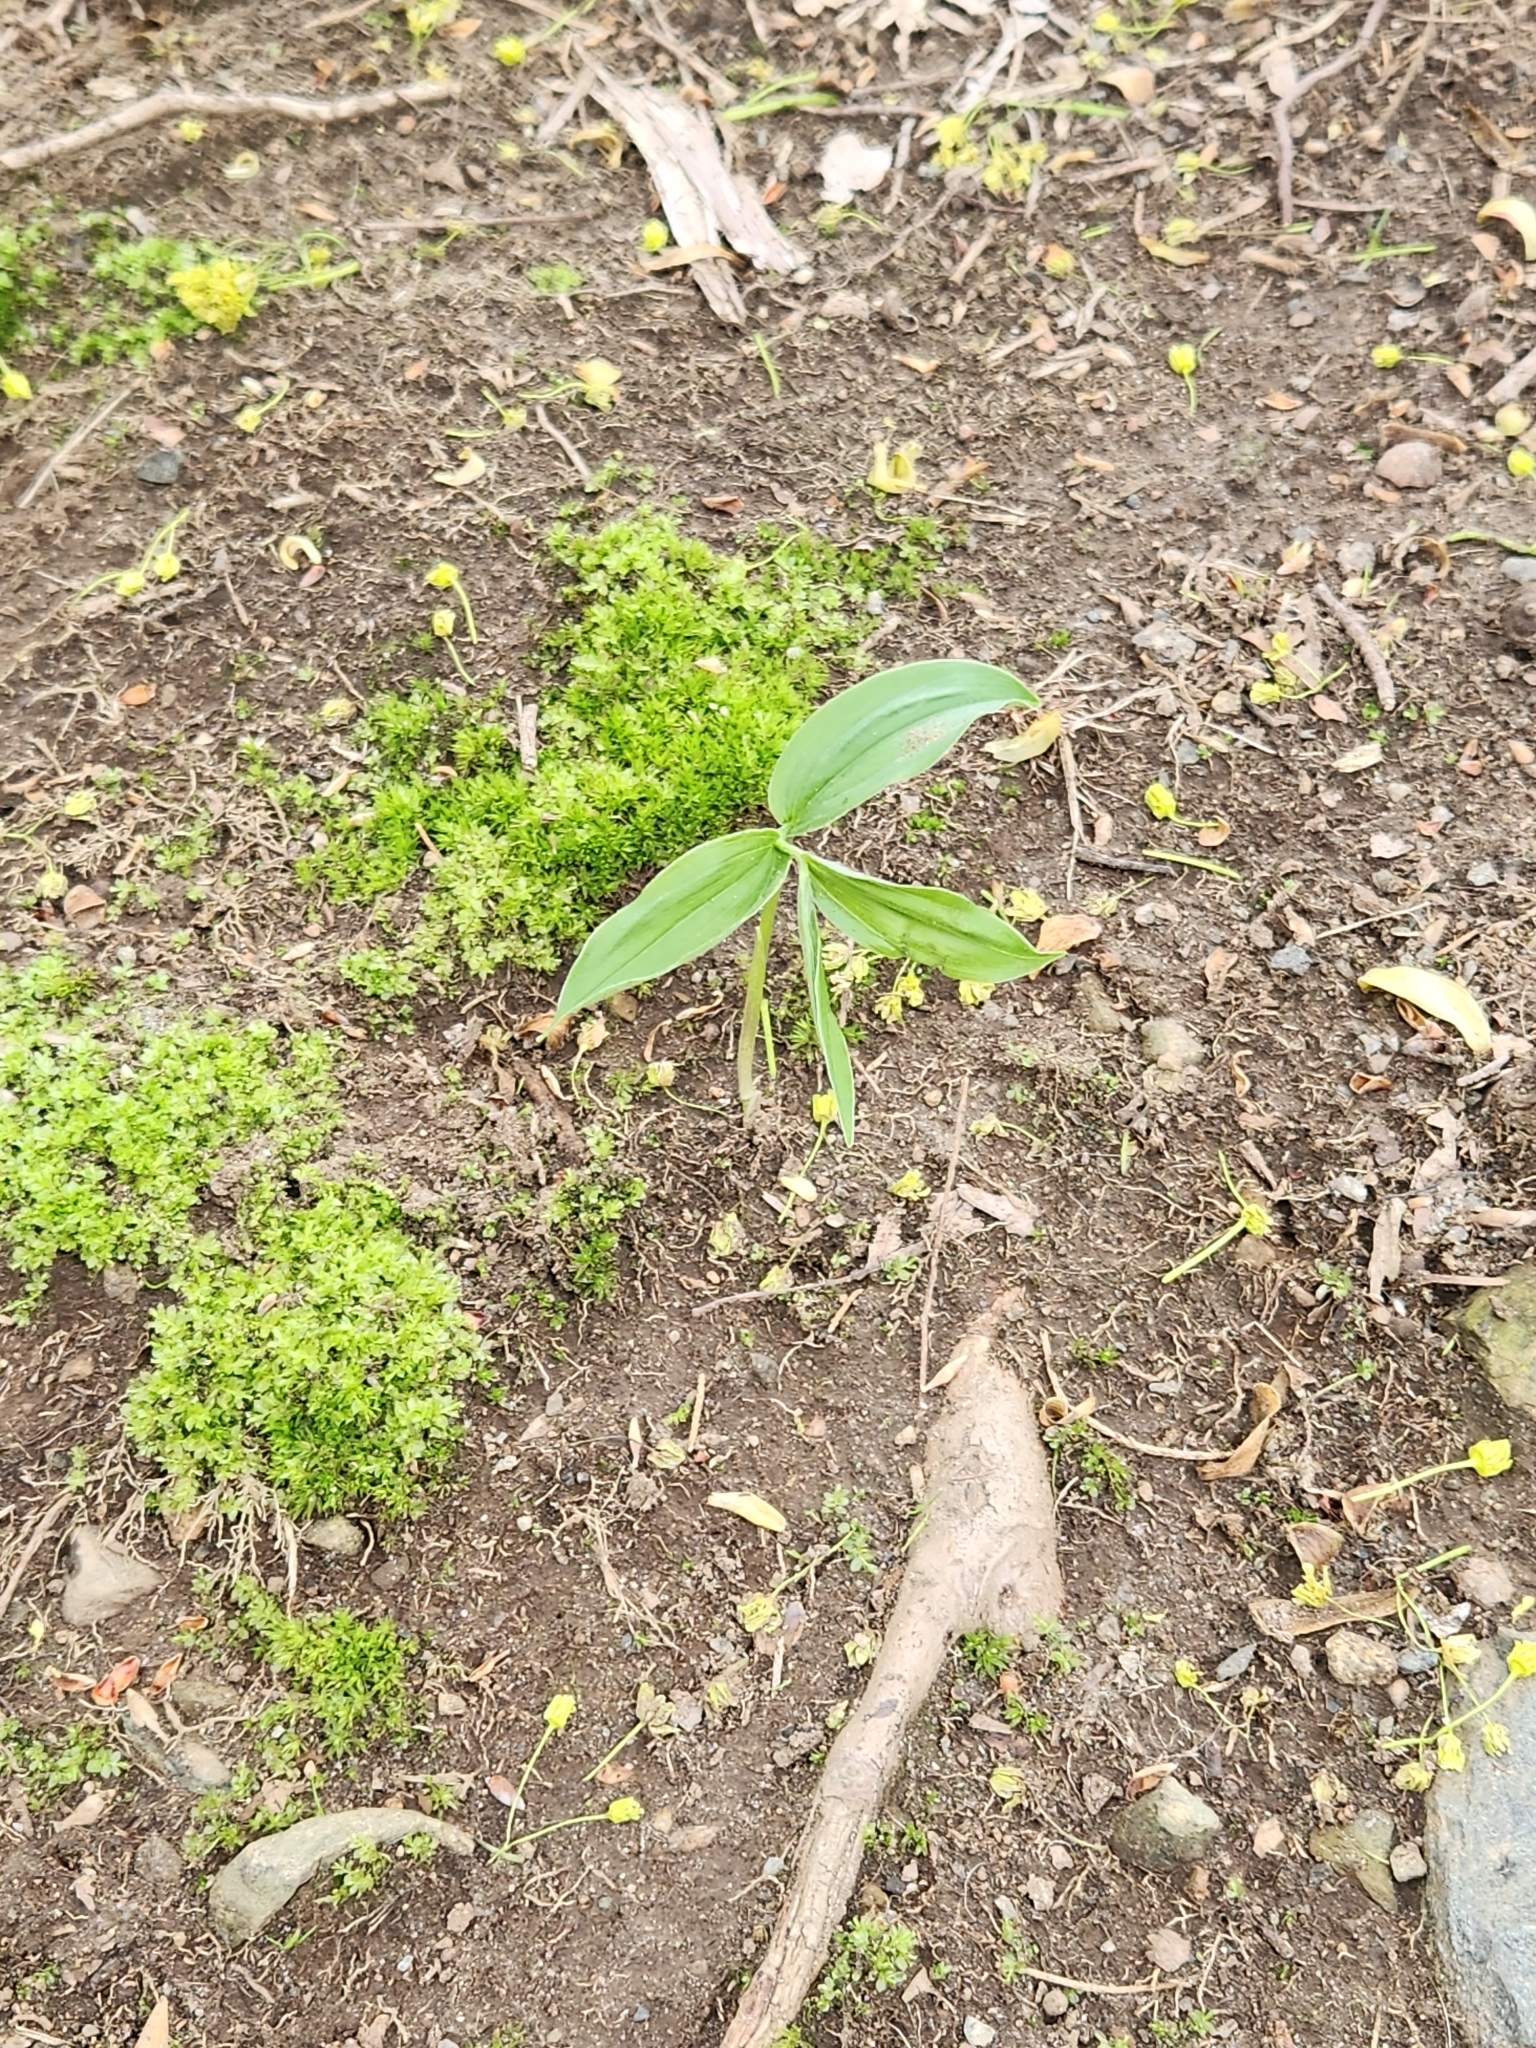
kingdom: Plantae
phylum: Tracheophyta
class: Liliopsida
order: Asparagales
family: Asparagaceae
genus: Maianthemum
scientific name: Maianthemum racemosum
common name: False spikenard
